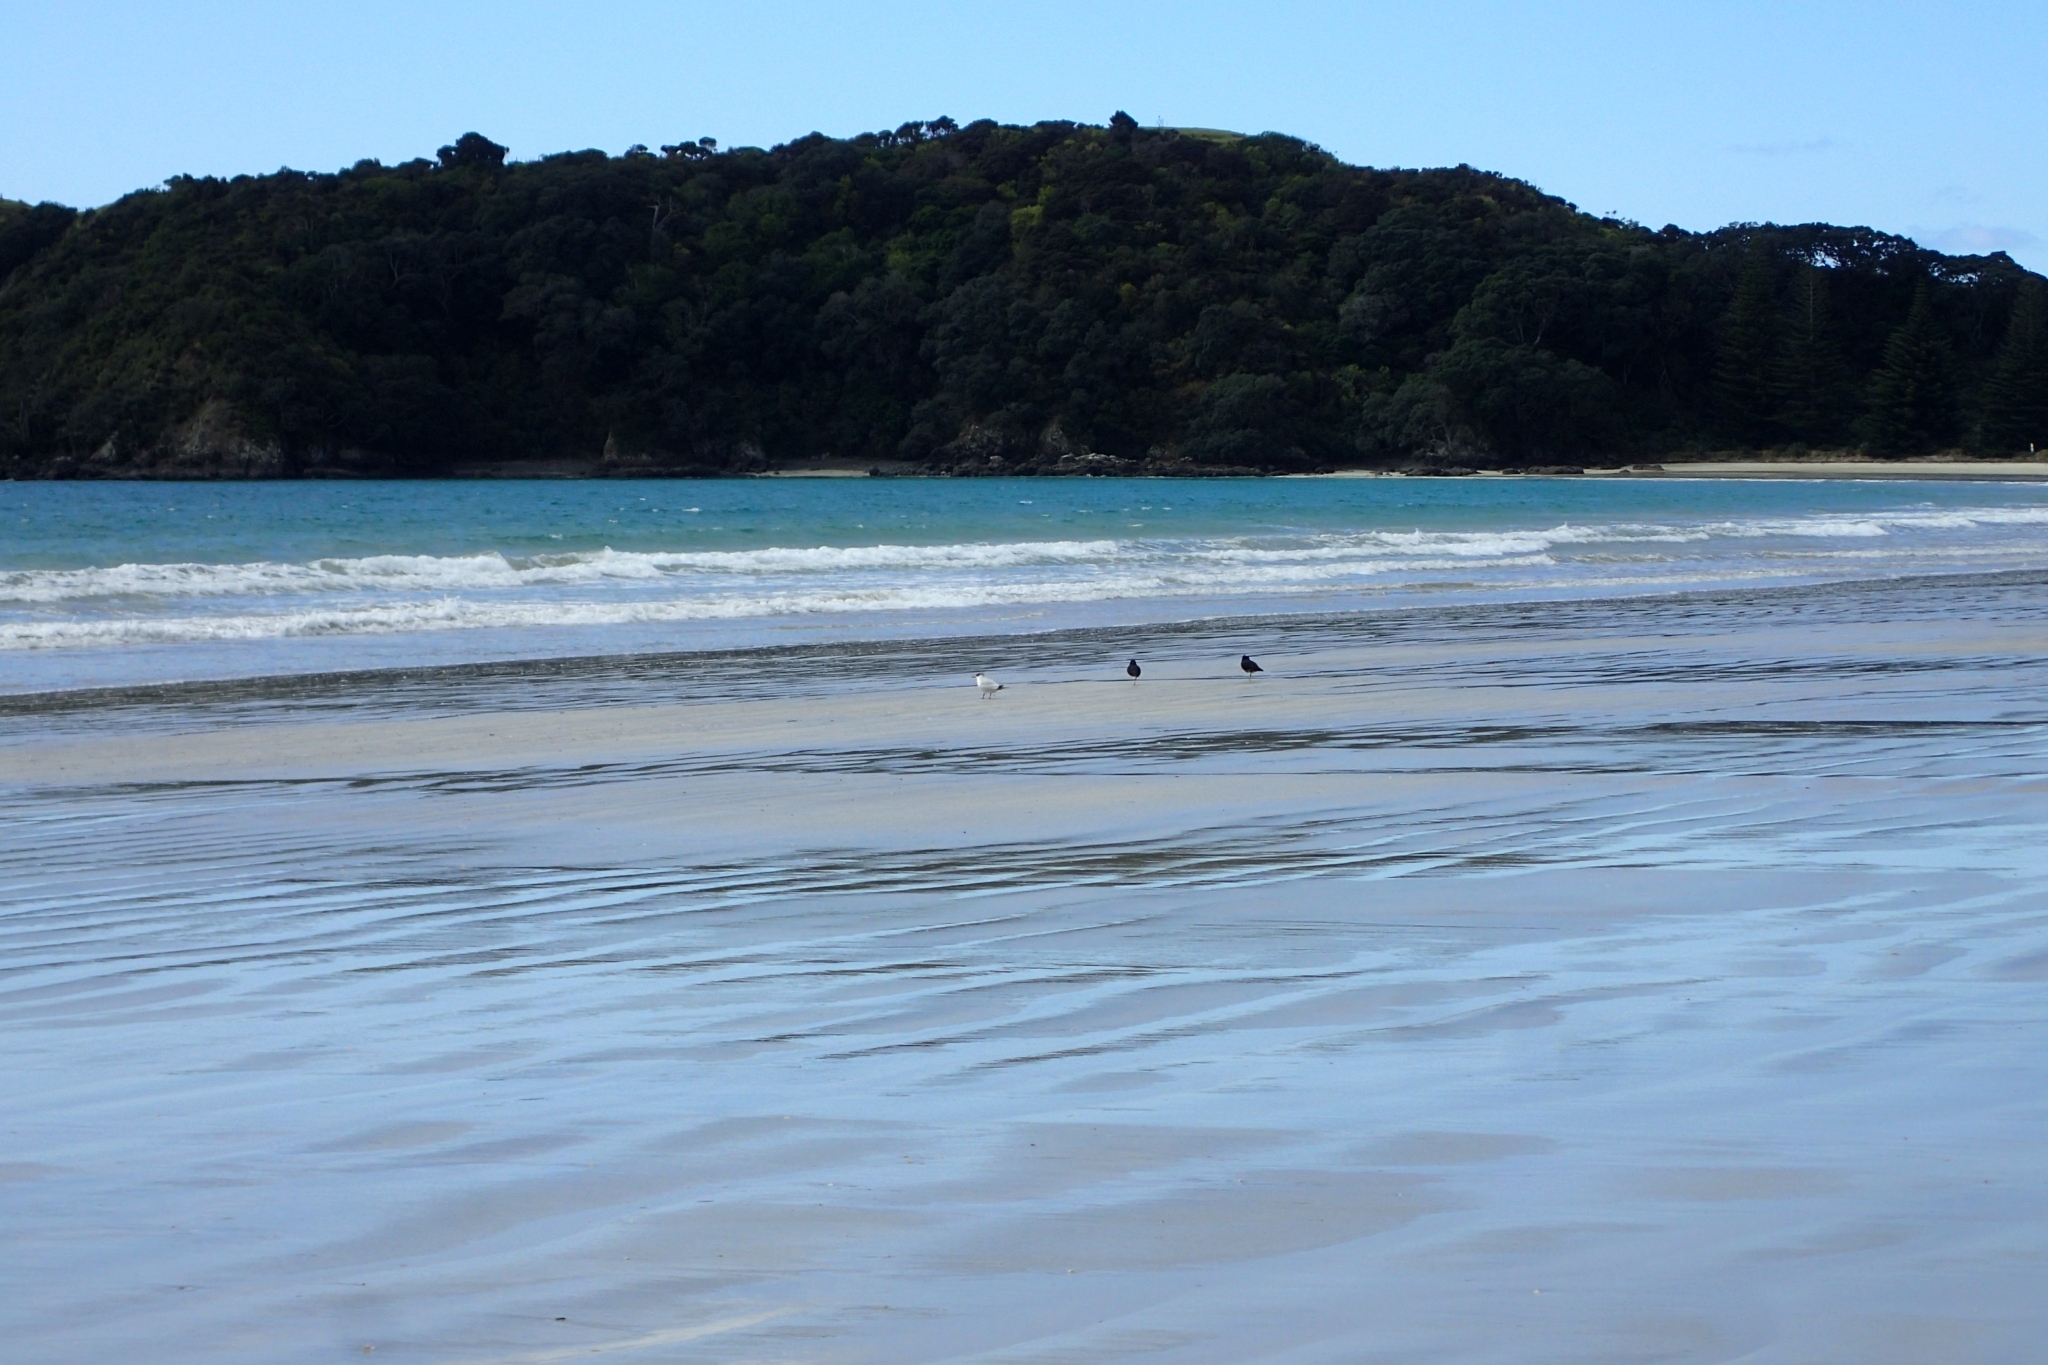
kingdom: Animalia
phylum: Chordata
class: Aves
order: Charadriiformes
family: Laridae
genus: Hydroprogne
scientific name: Hydroprogne caspia
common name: Caspian tern
